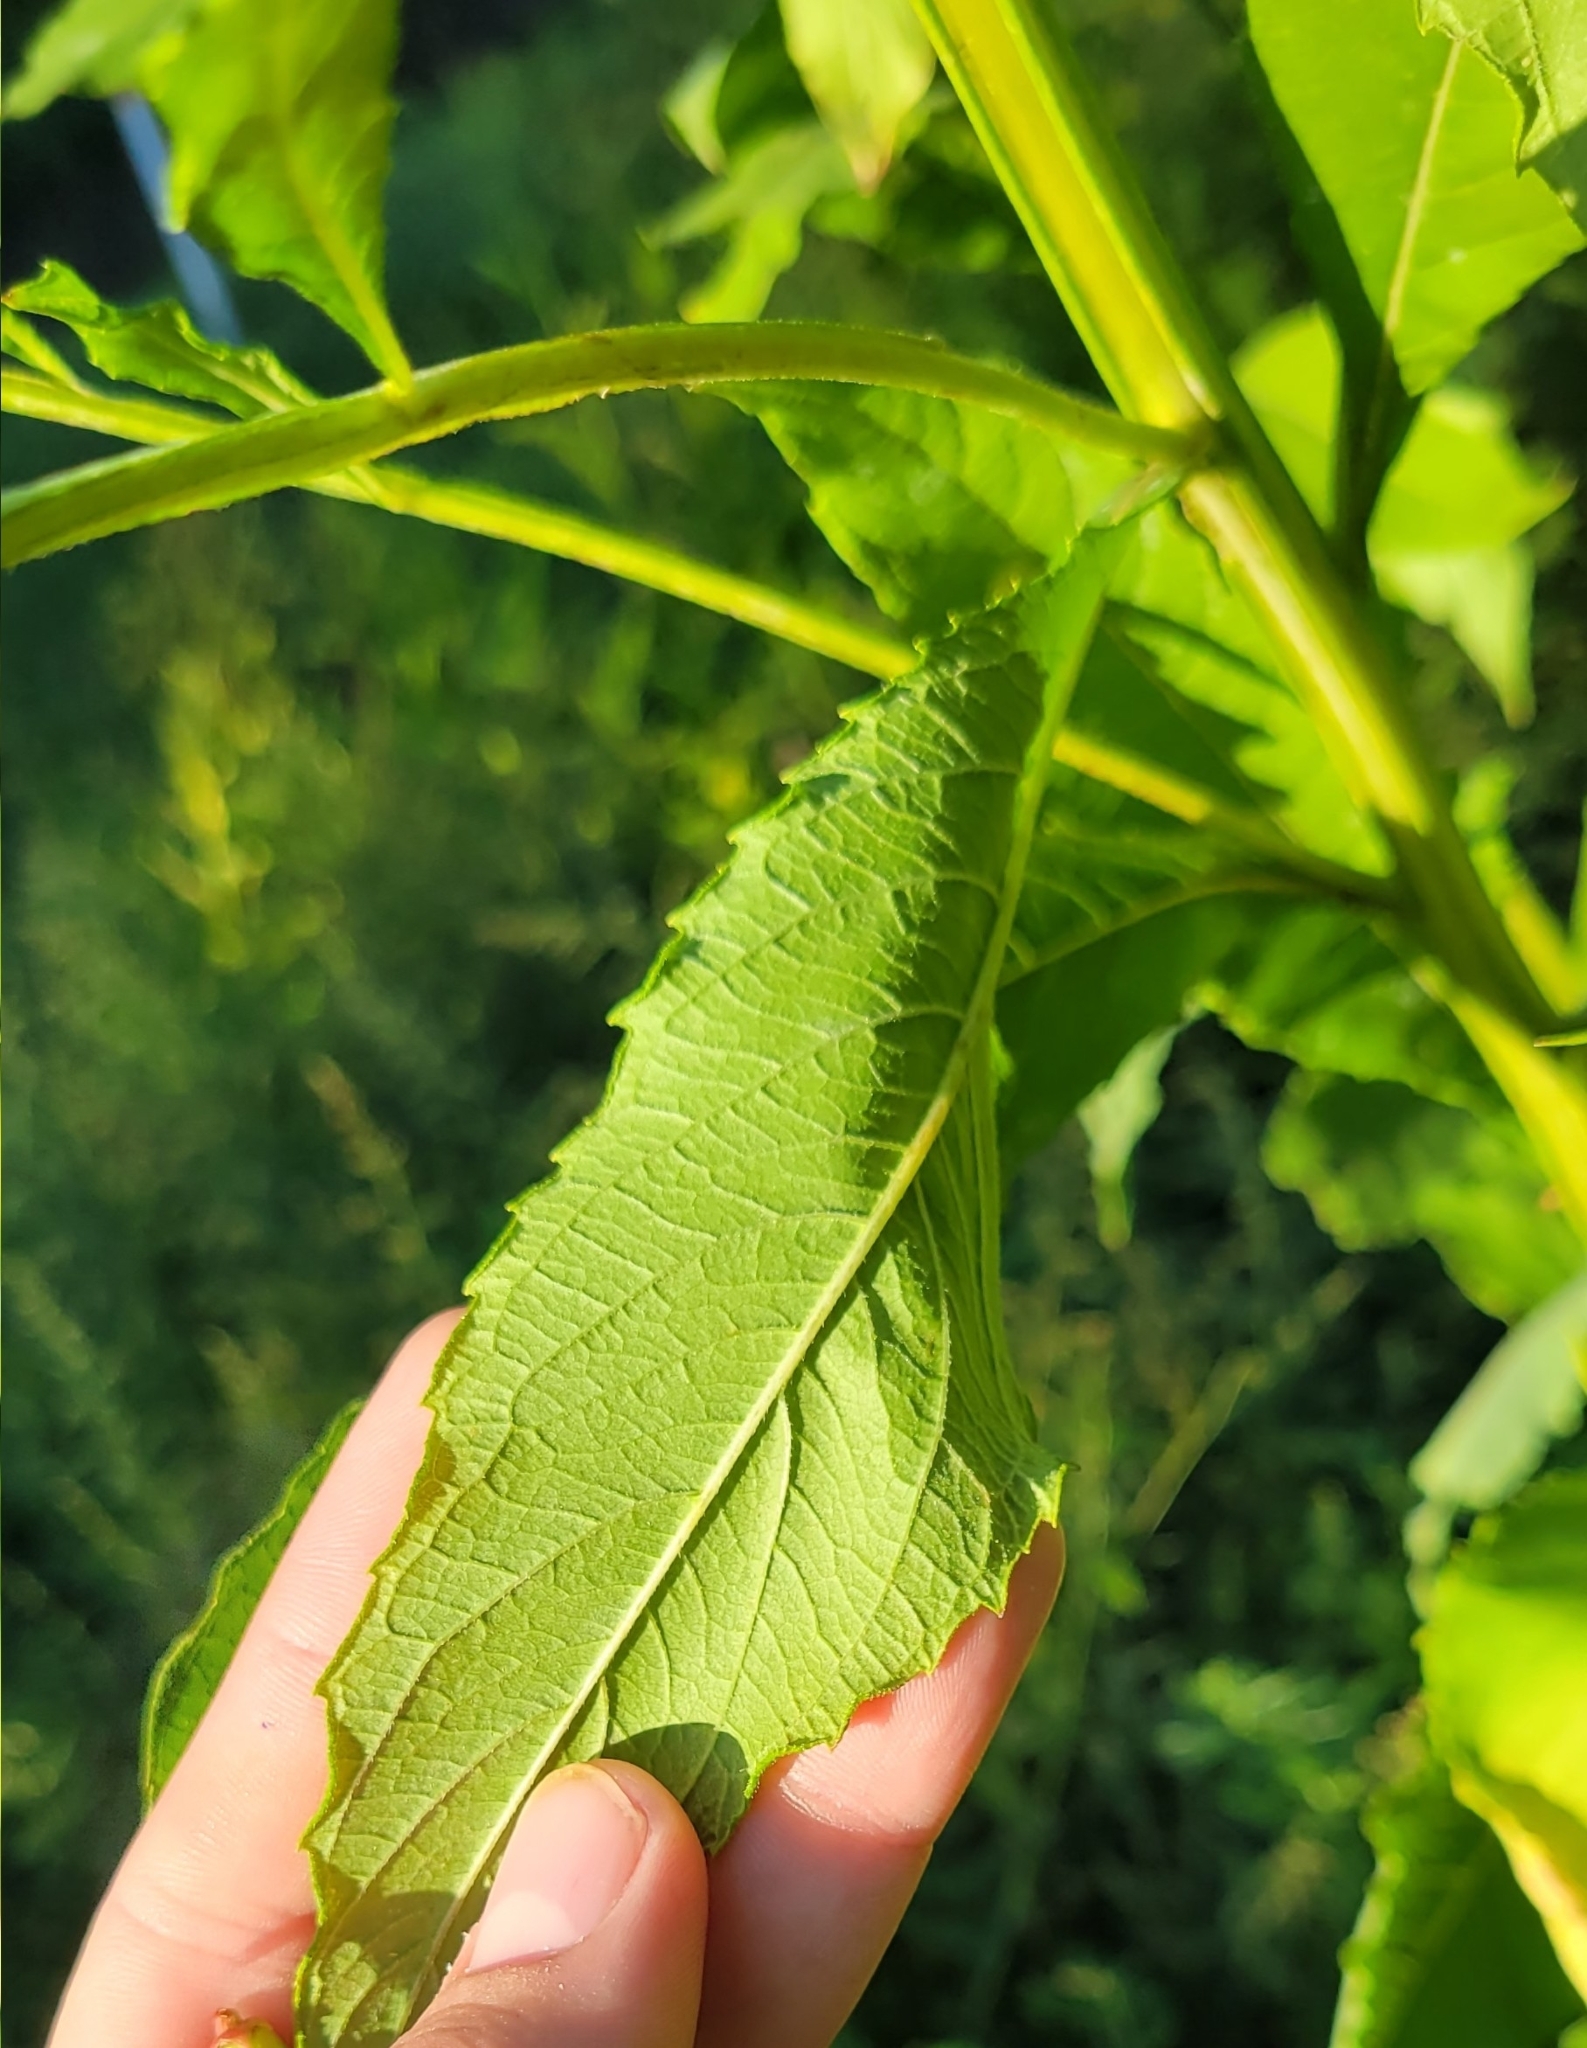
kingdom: Plantae
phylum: Tracheophyta
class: Magnoliopsida
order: Asterales
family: Asteraceae
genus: Verbesina
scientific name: Verbesina alternifolia
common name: Wingstem
